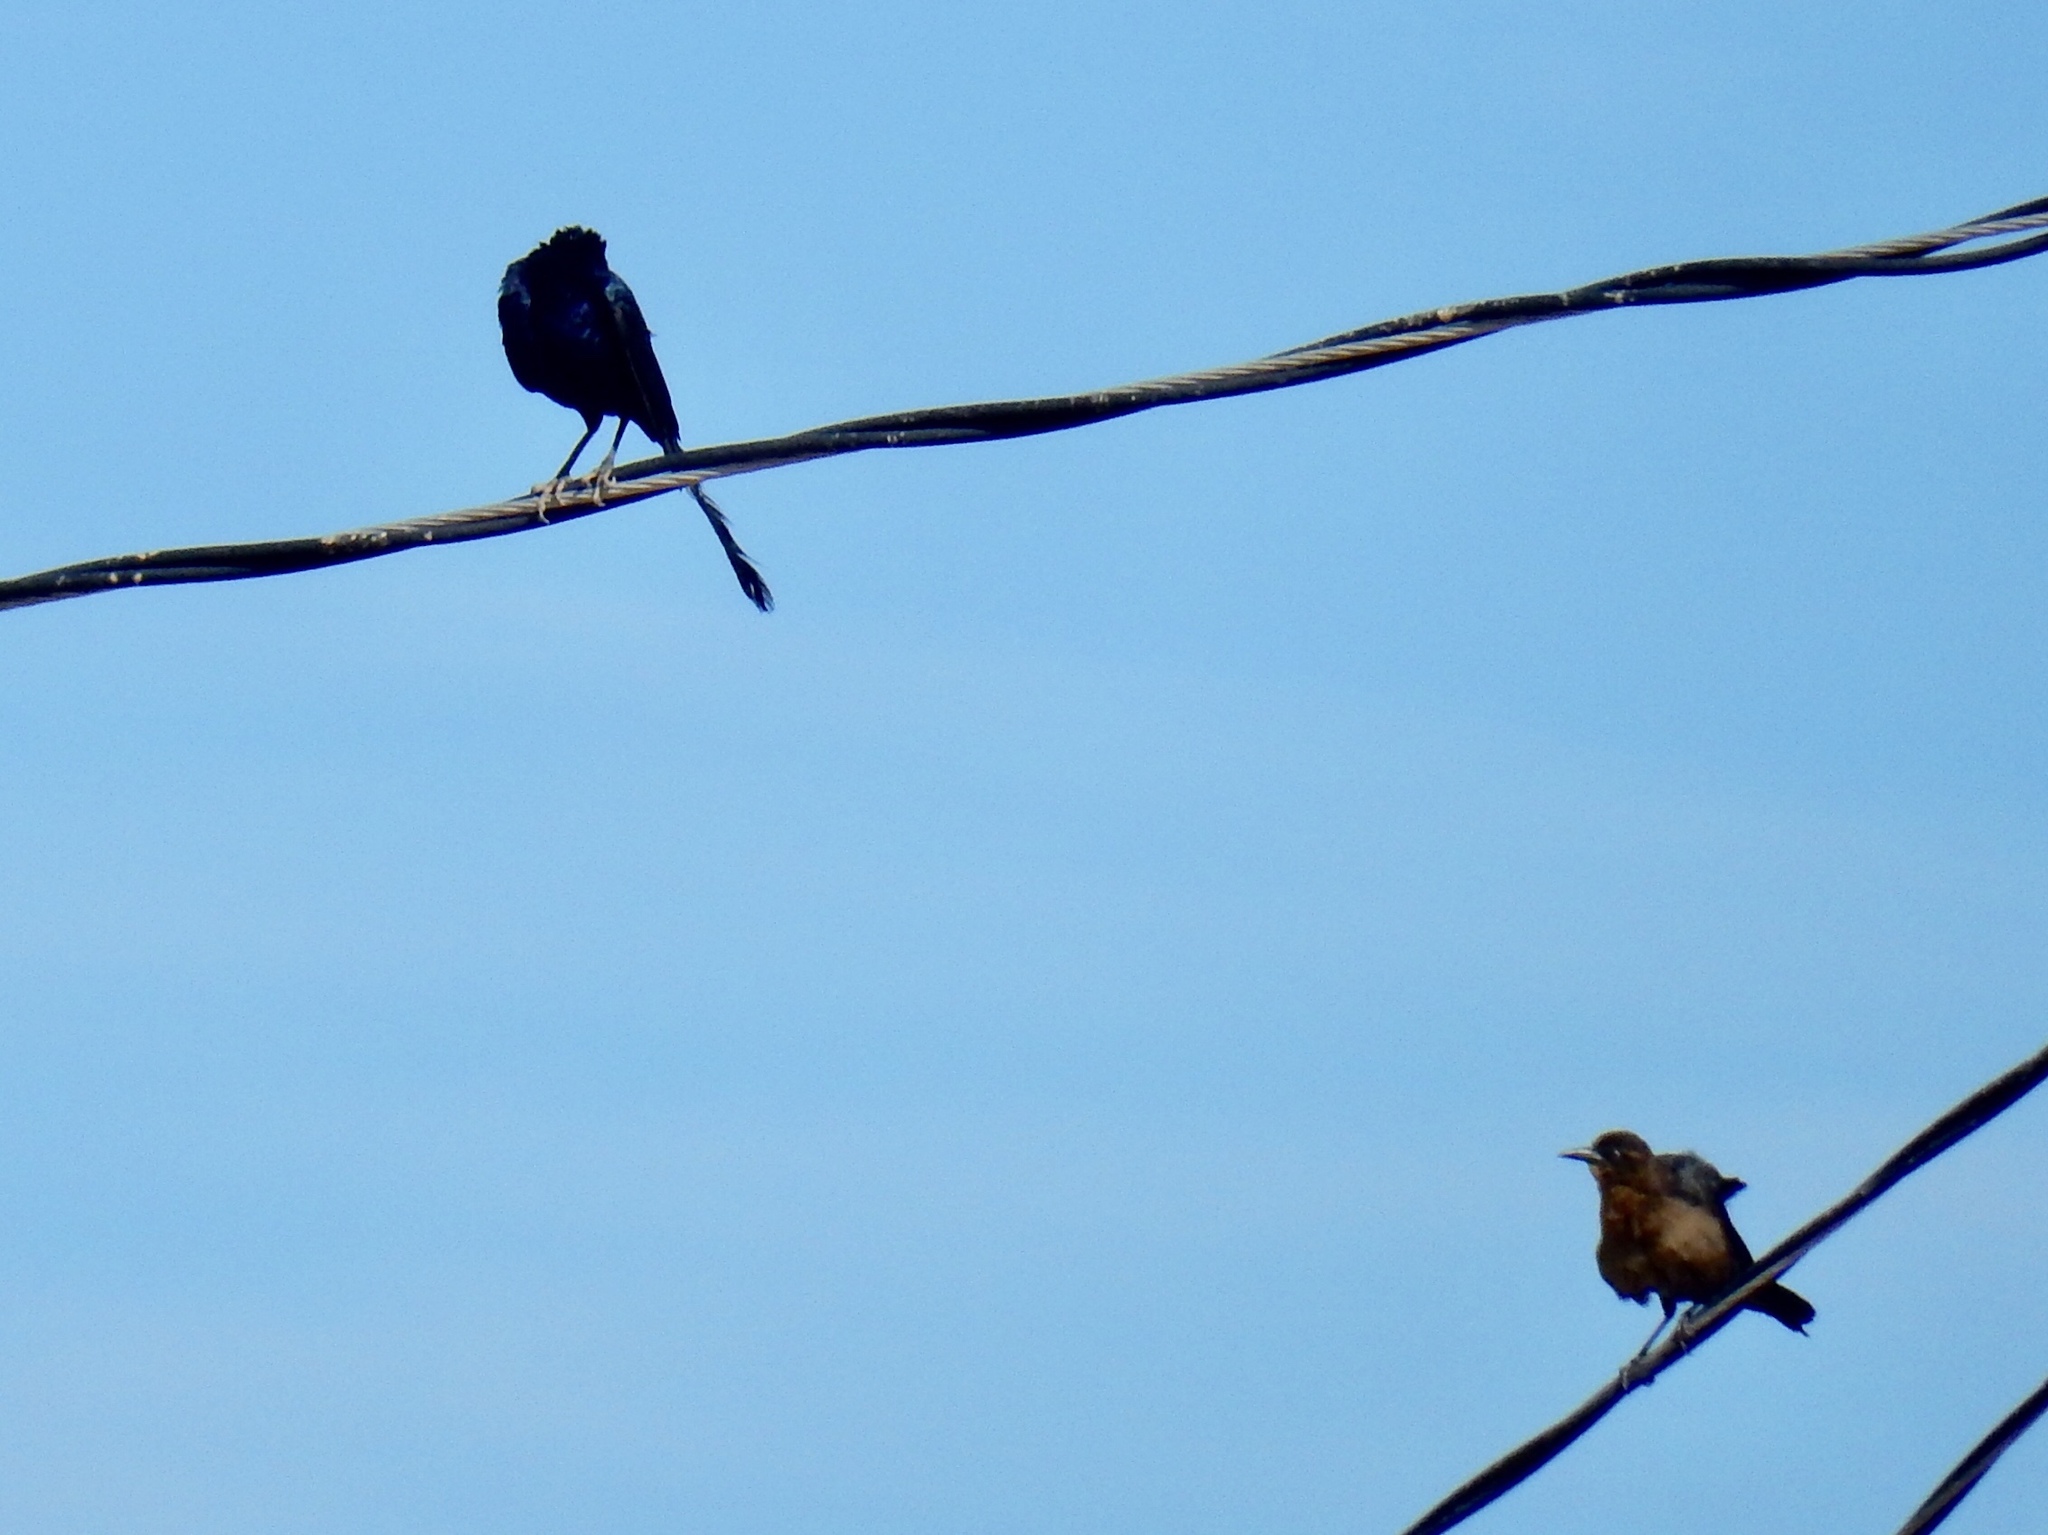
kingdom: Animalia
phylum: Chordata
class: Aves
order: Passeriformes
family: Icteridae
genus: Quiscalus
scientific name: Quiscalus mexicanus
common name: Great-tailed grackle
